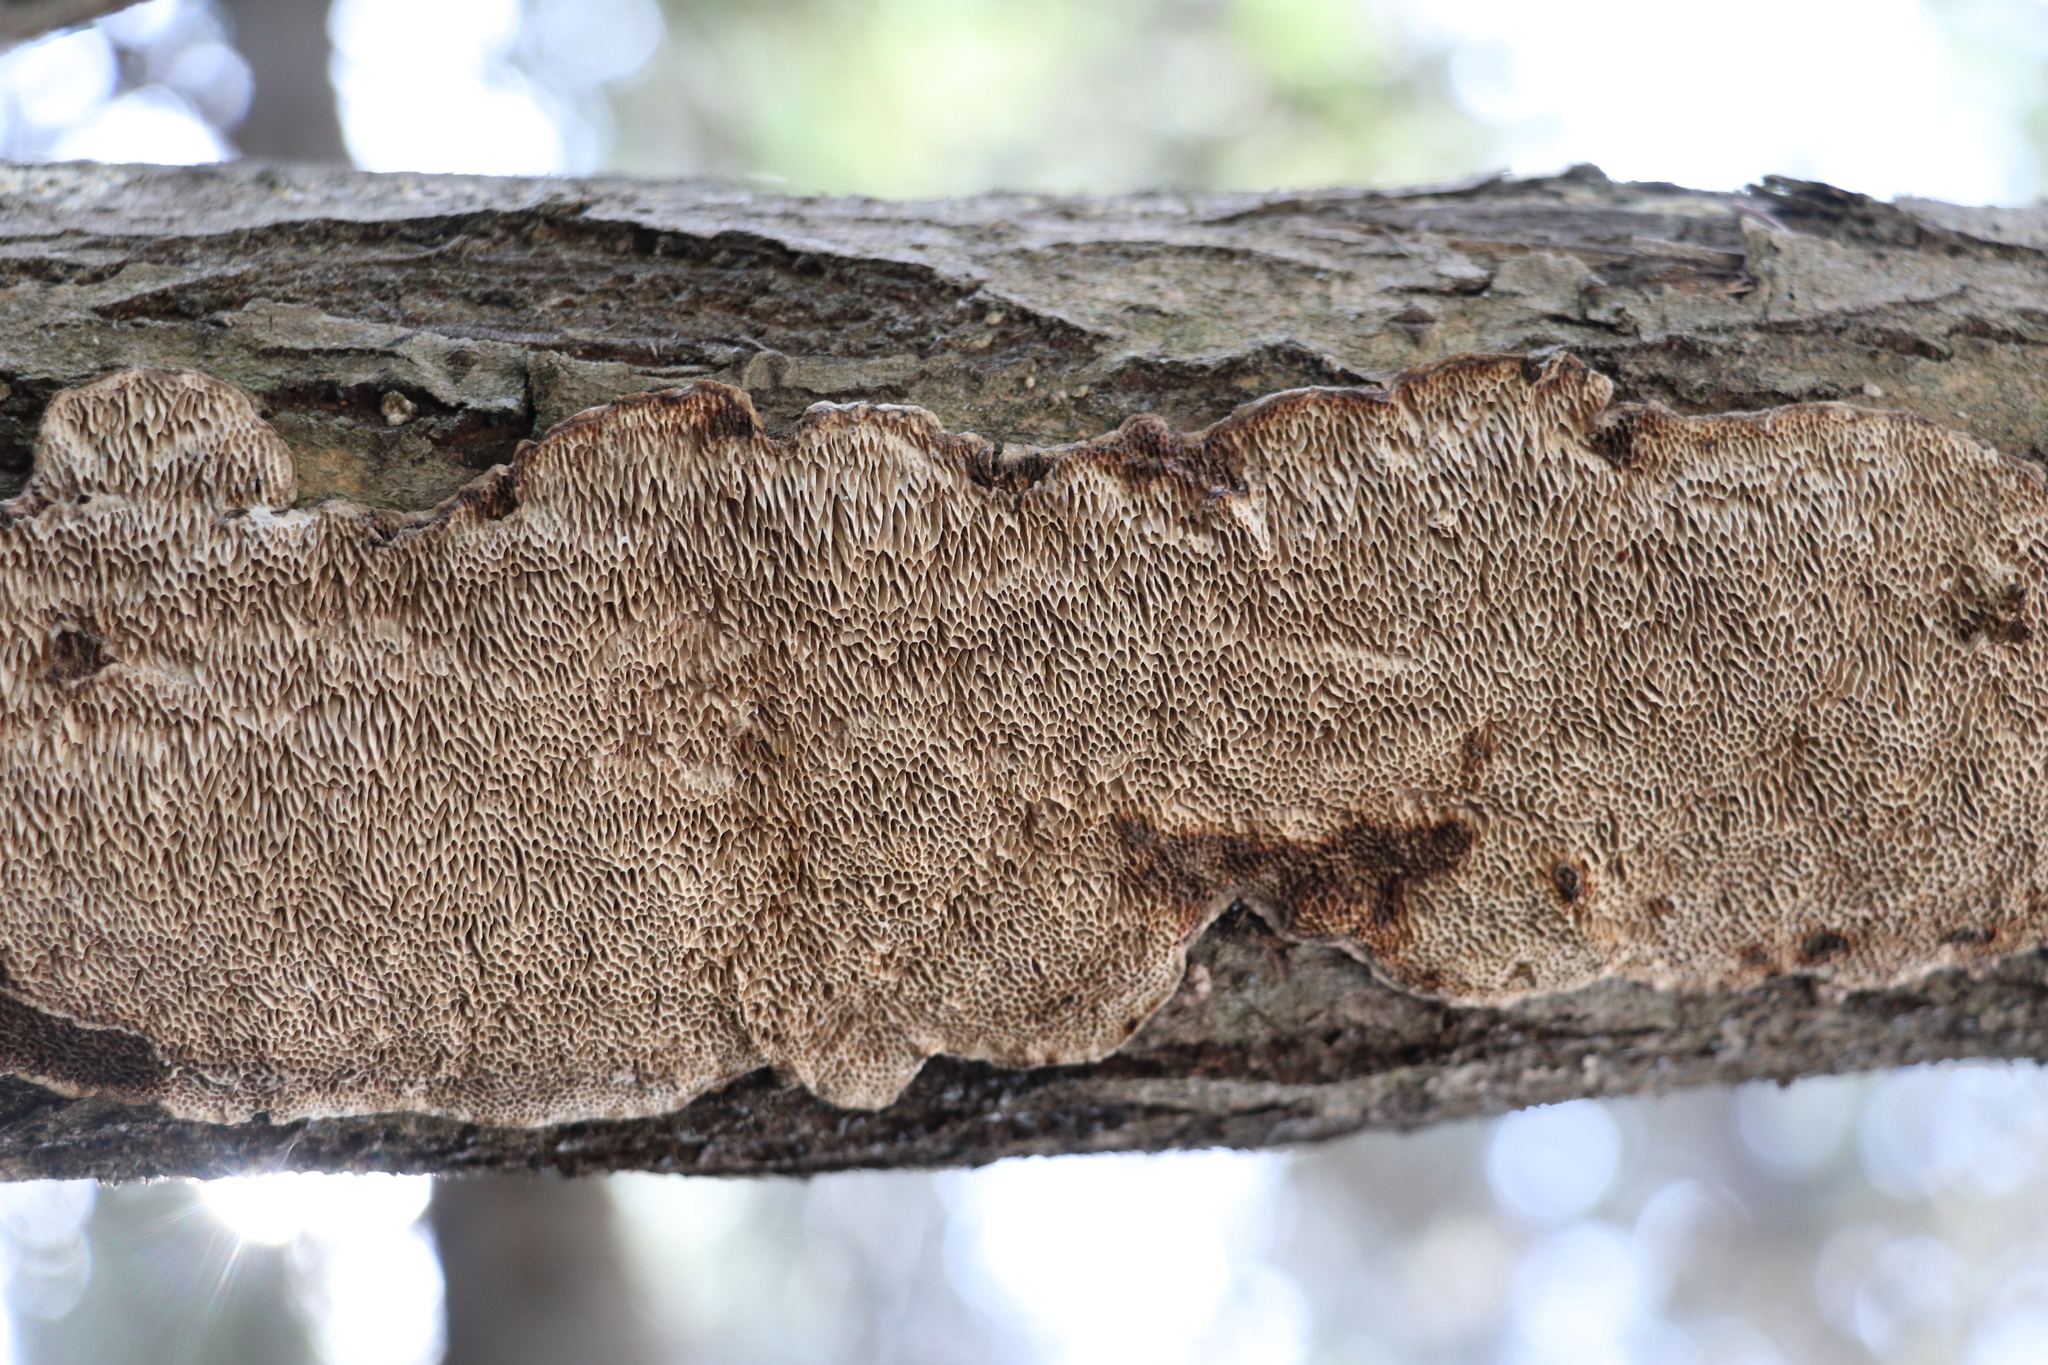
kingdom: Fungi
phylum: Basidiomycota
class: Agaricomycetes
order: Polyporales
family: Polyporaceae
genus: Podofomes
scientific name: Podofomes mollis
